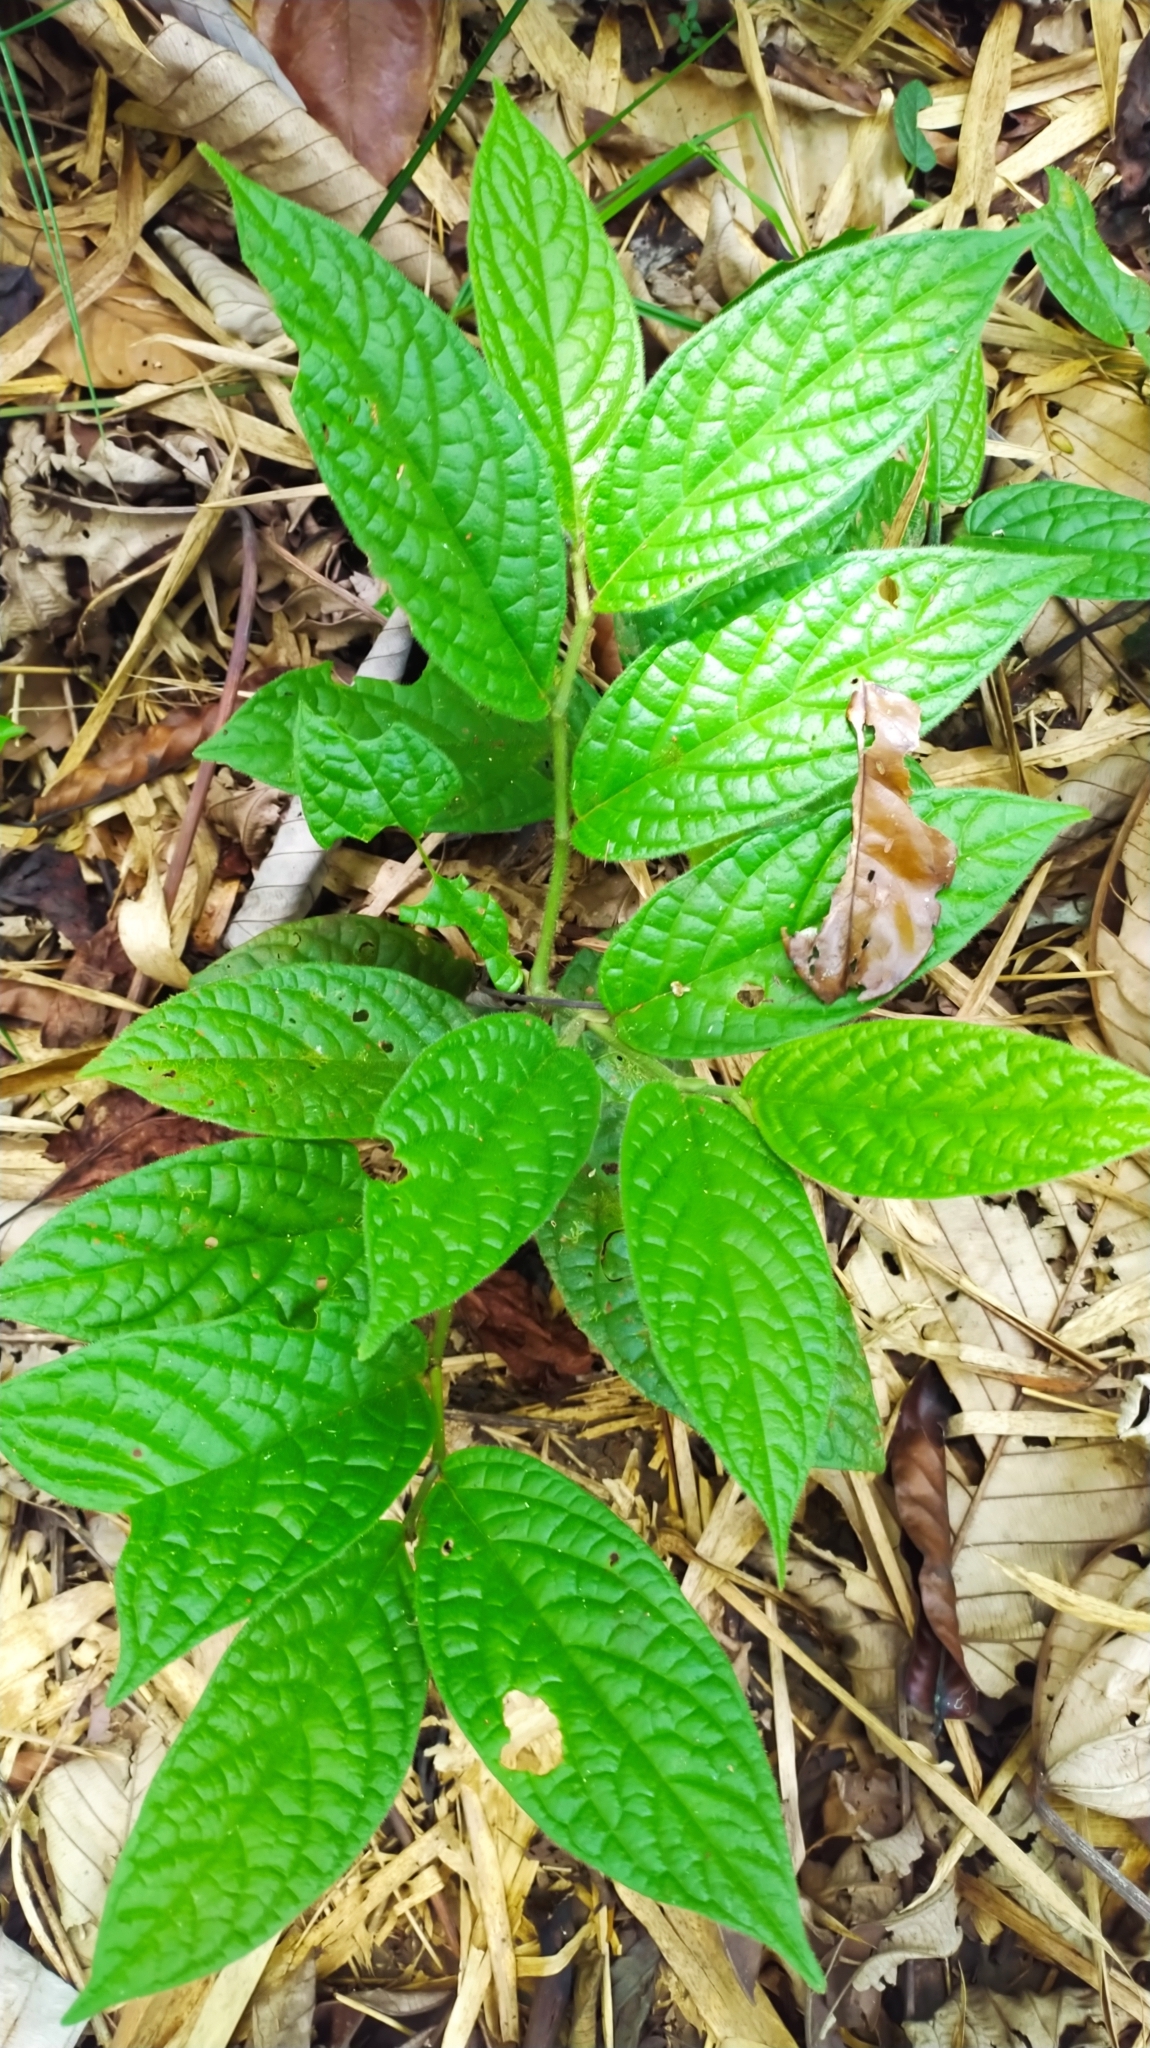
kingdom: Plantae
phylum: Tracheophyta
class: Magnoliopsida
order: Piperales
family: Piperaceae
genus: Piper
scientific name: Piper brownsbergense
